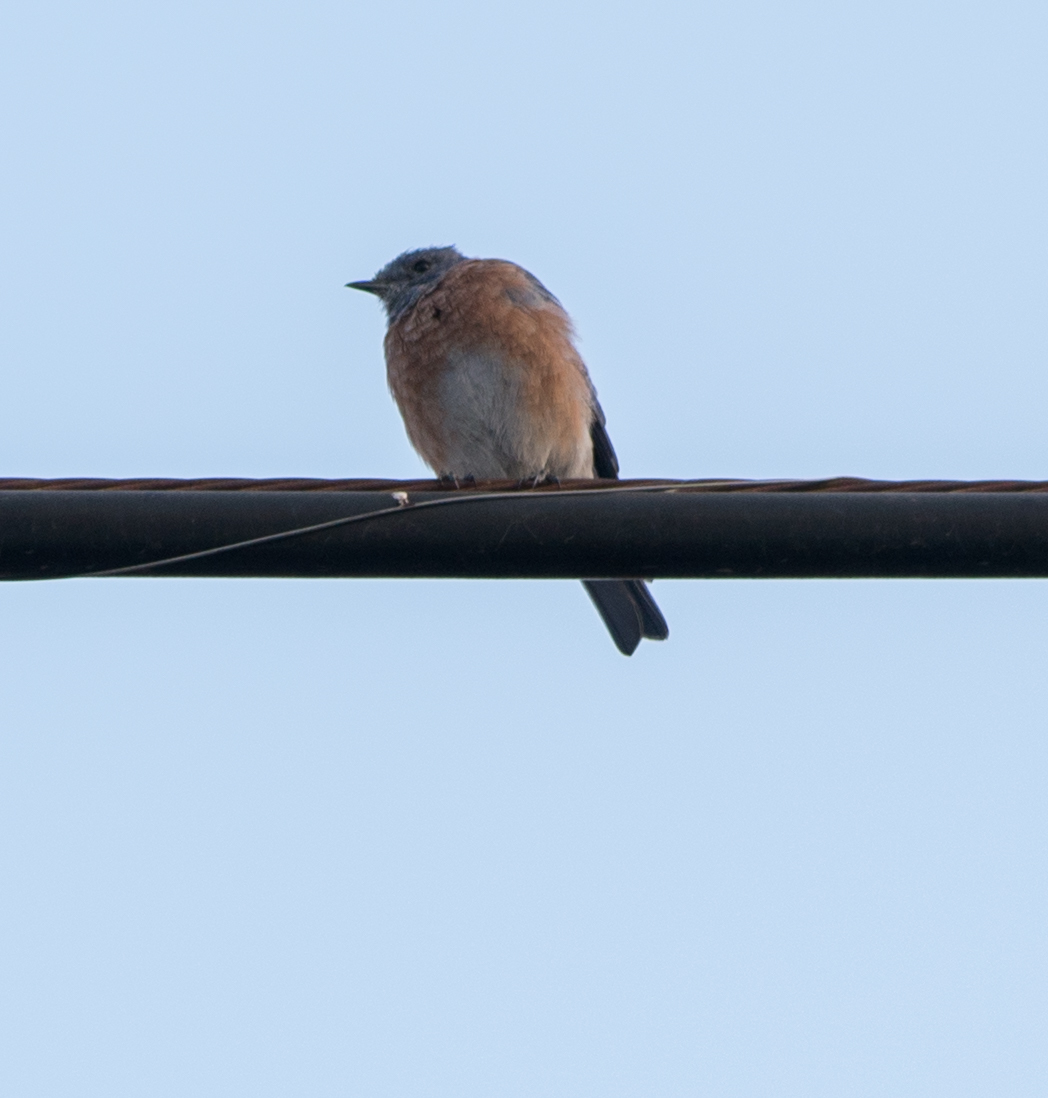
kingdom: Animalia
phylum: Chordata
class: Aves
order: Passeriformes
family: Turdidae
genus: Sialia
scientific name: Sialia mexicana
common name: Western bluebird
